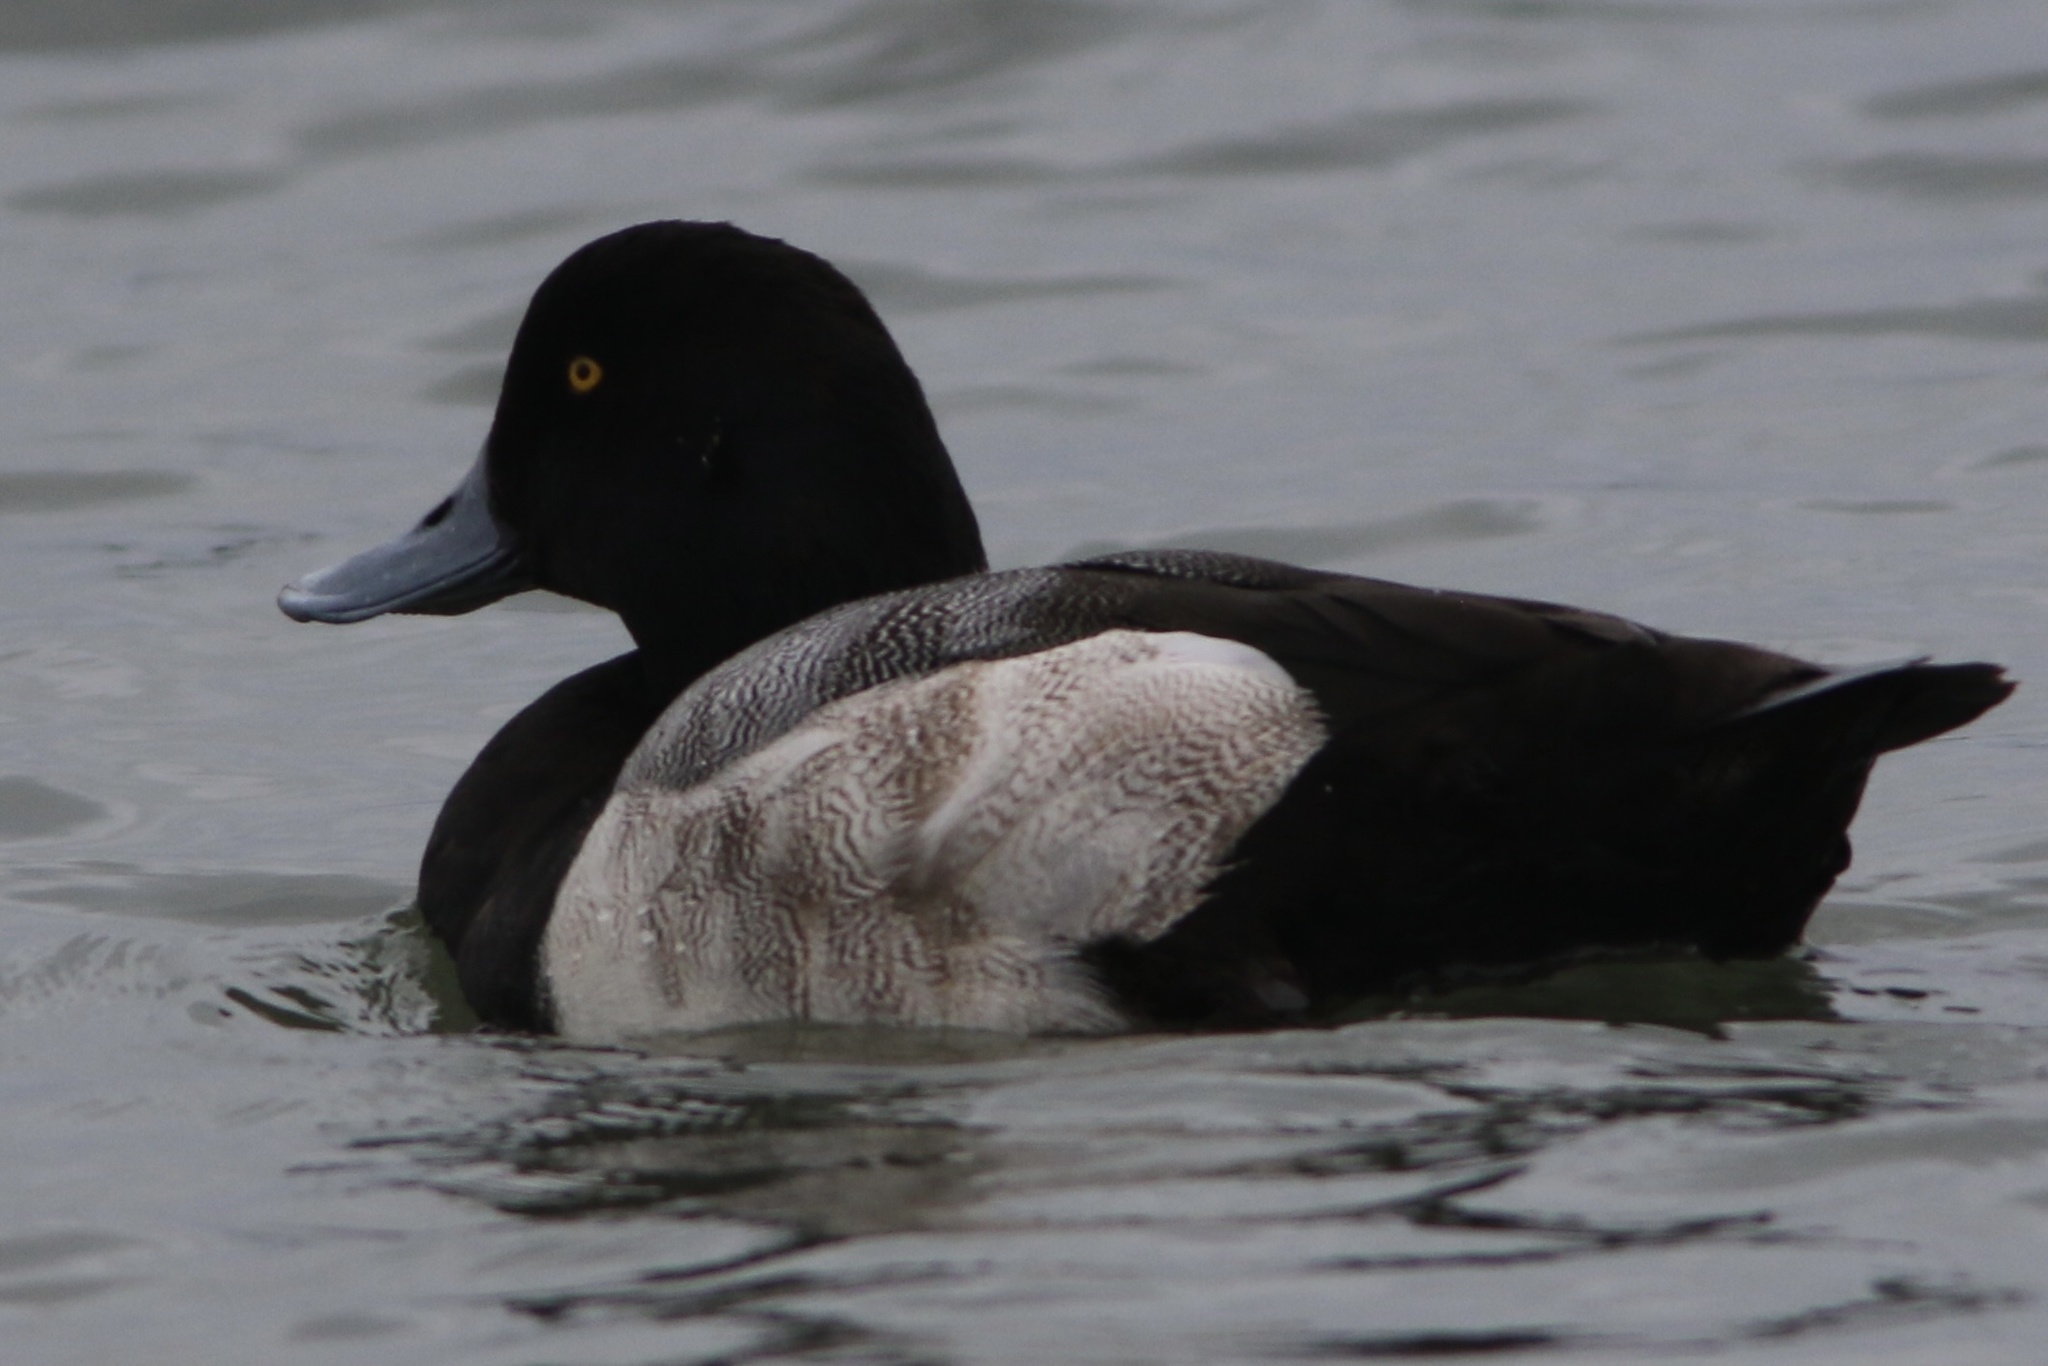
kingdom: Animalia
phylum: Chordata
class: Aves
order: Anseriformes
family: Anatidae
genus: Aythya
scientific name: Aythya marila
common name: Greater scaup
